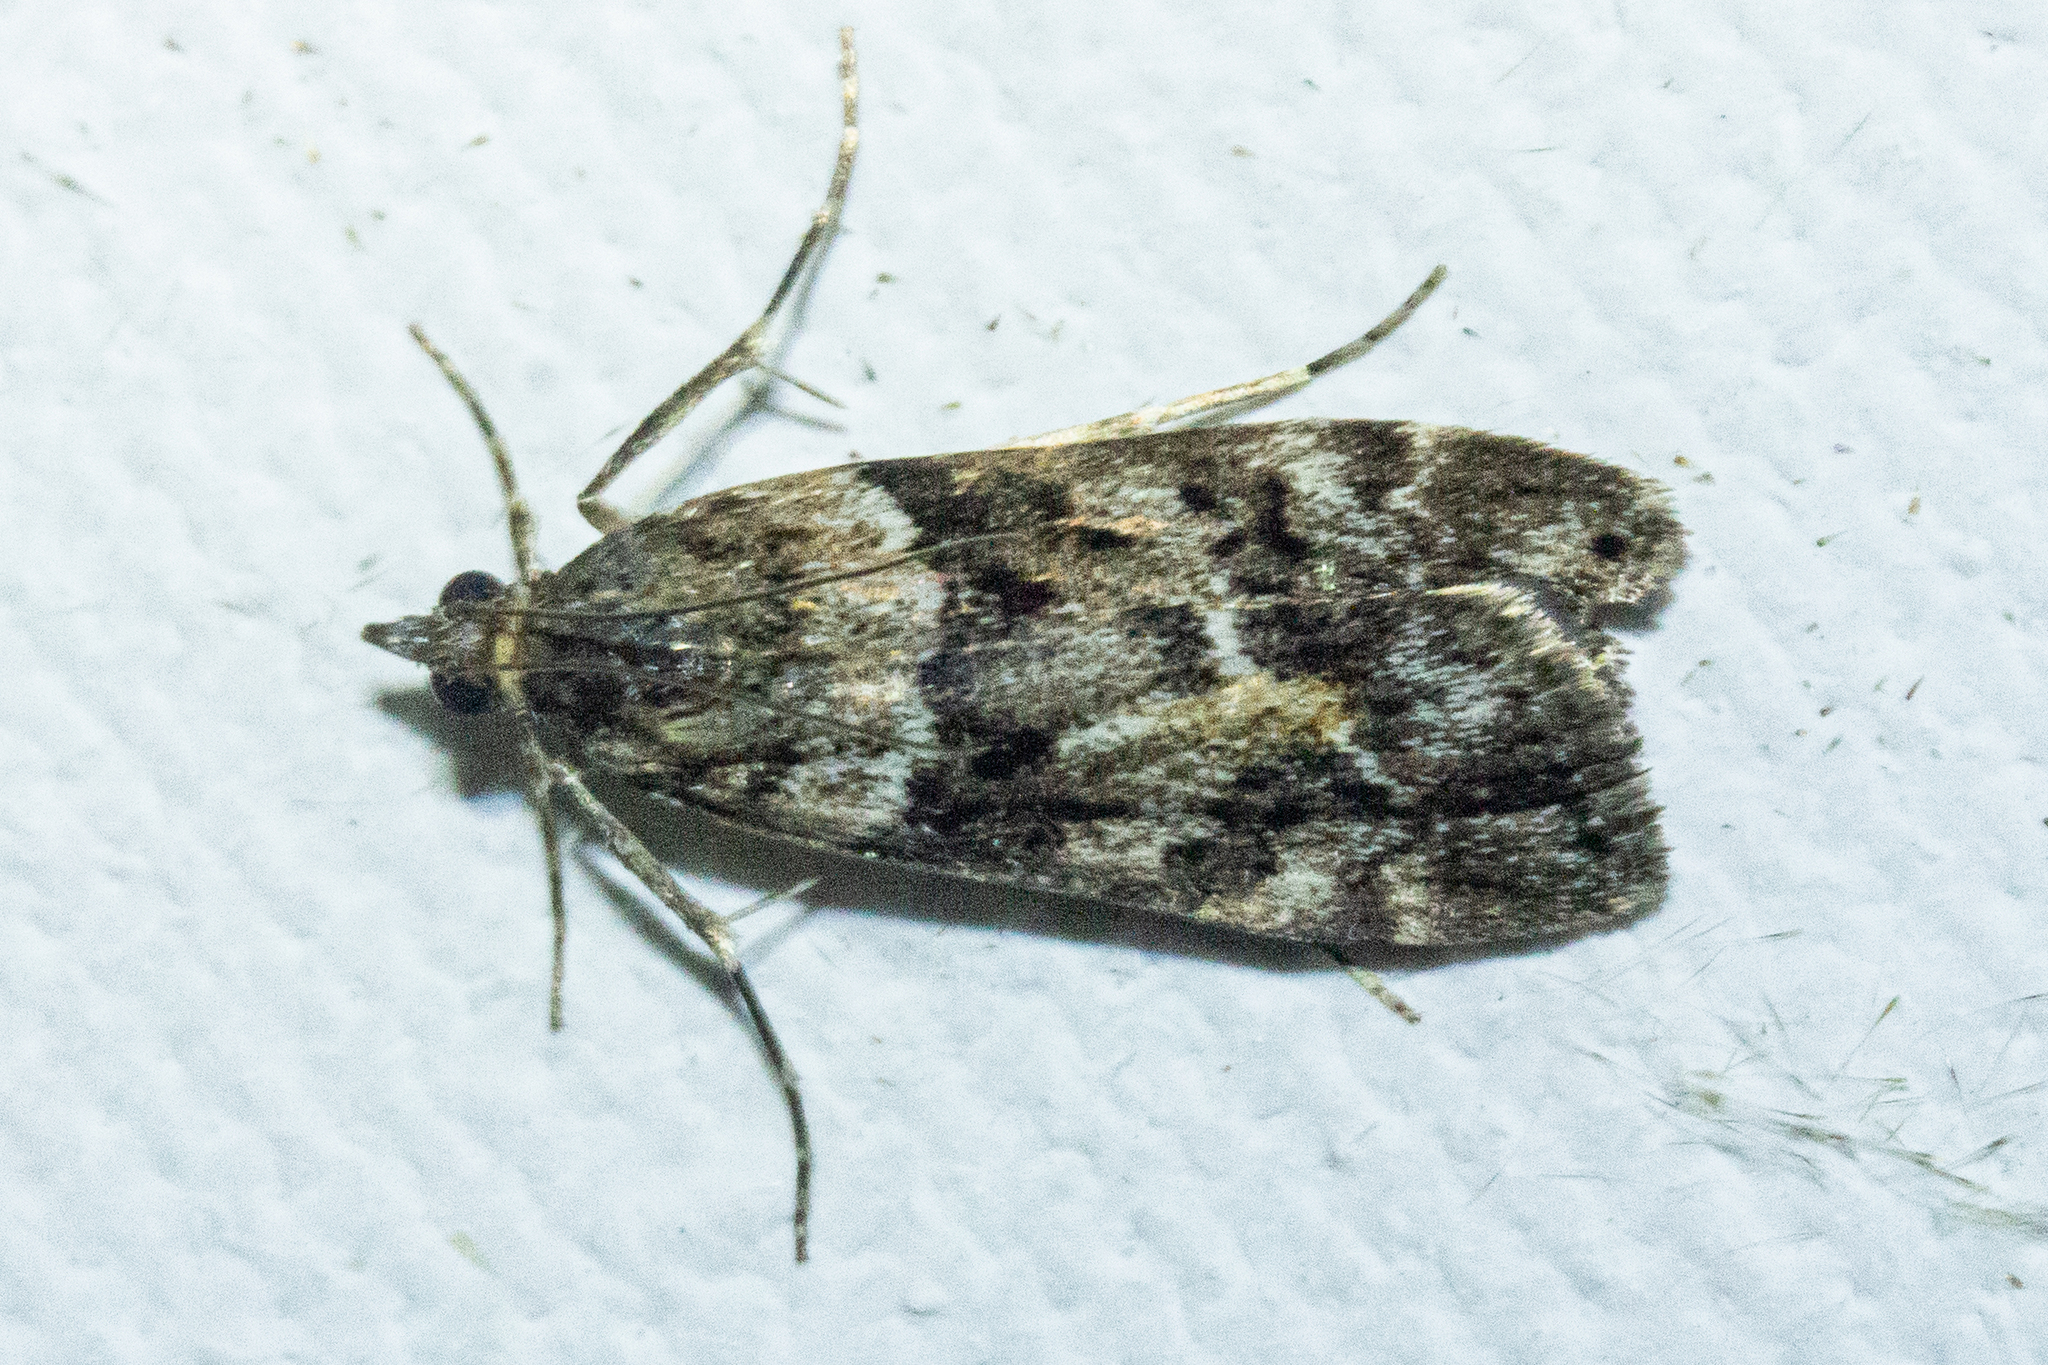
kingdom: Animalia
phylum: Arthropoda
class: Insecta
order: Lepidoptera
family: Crambidae
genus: Eudonia
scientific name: Eudonia submarginalis
